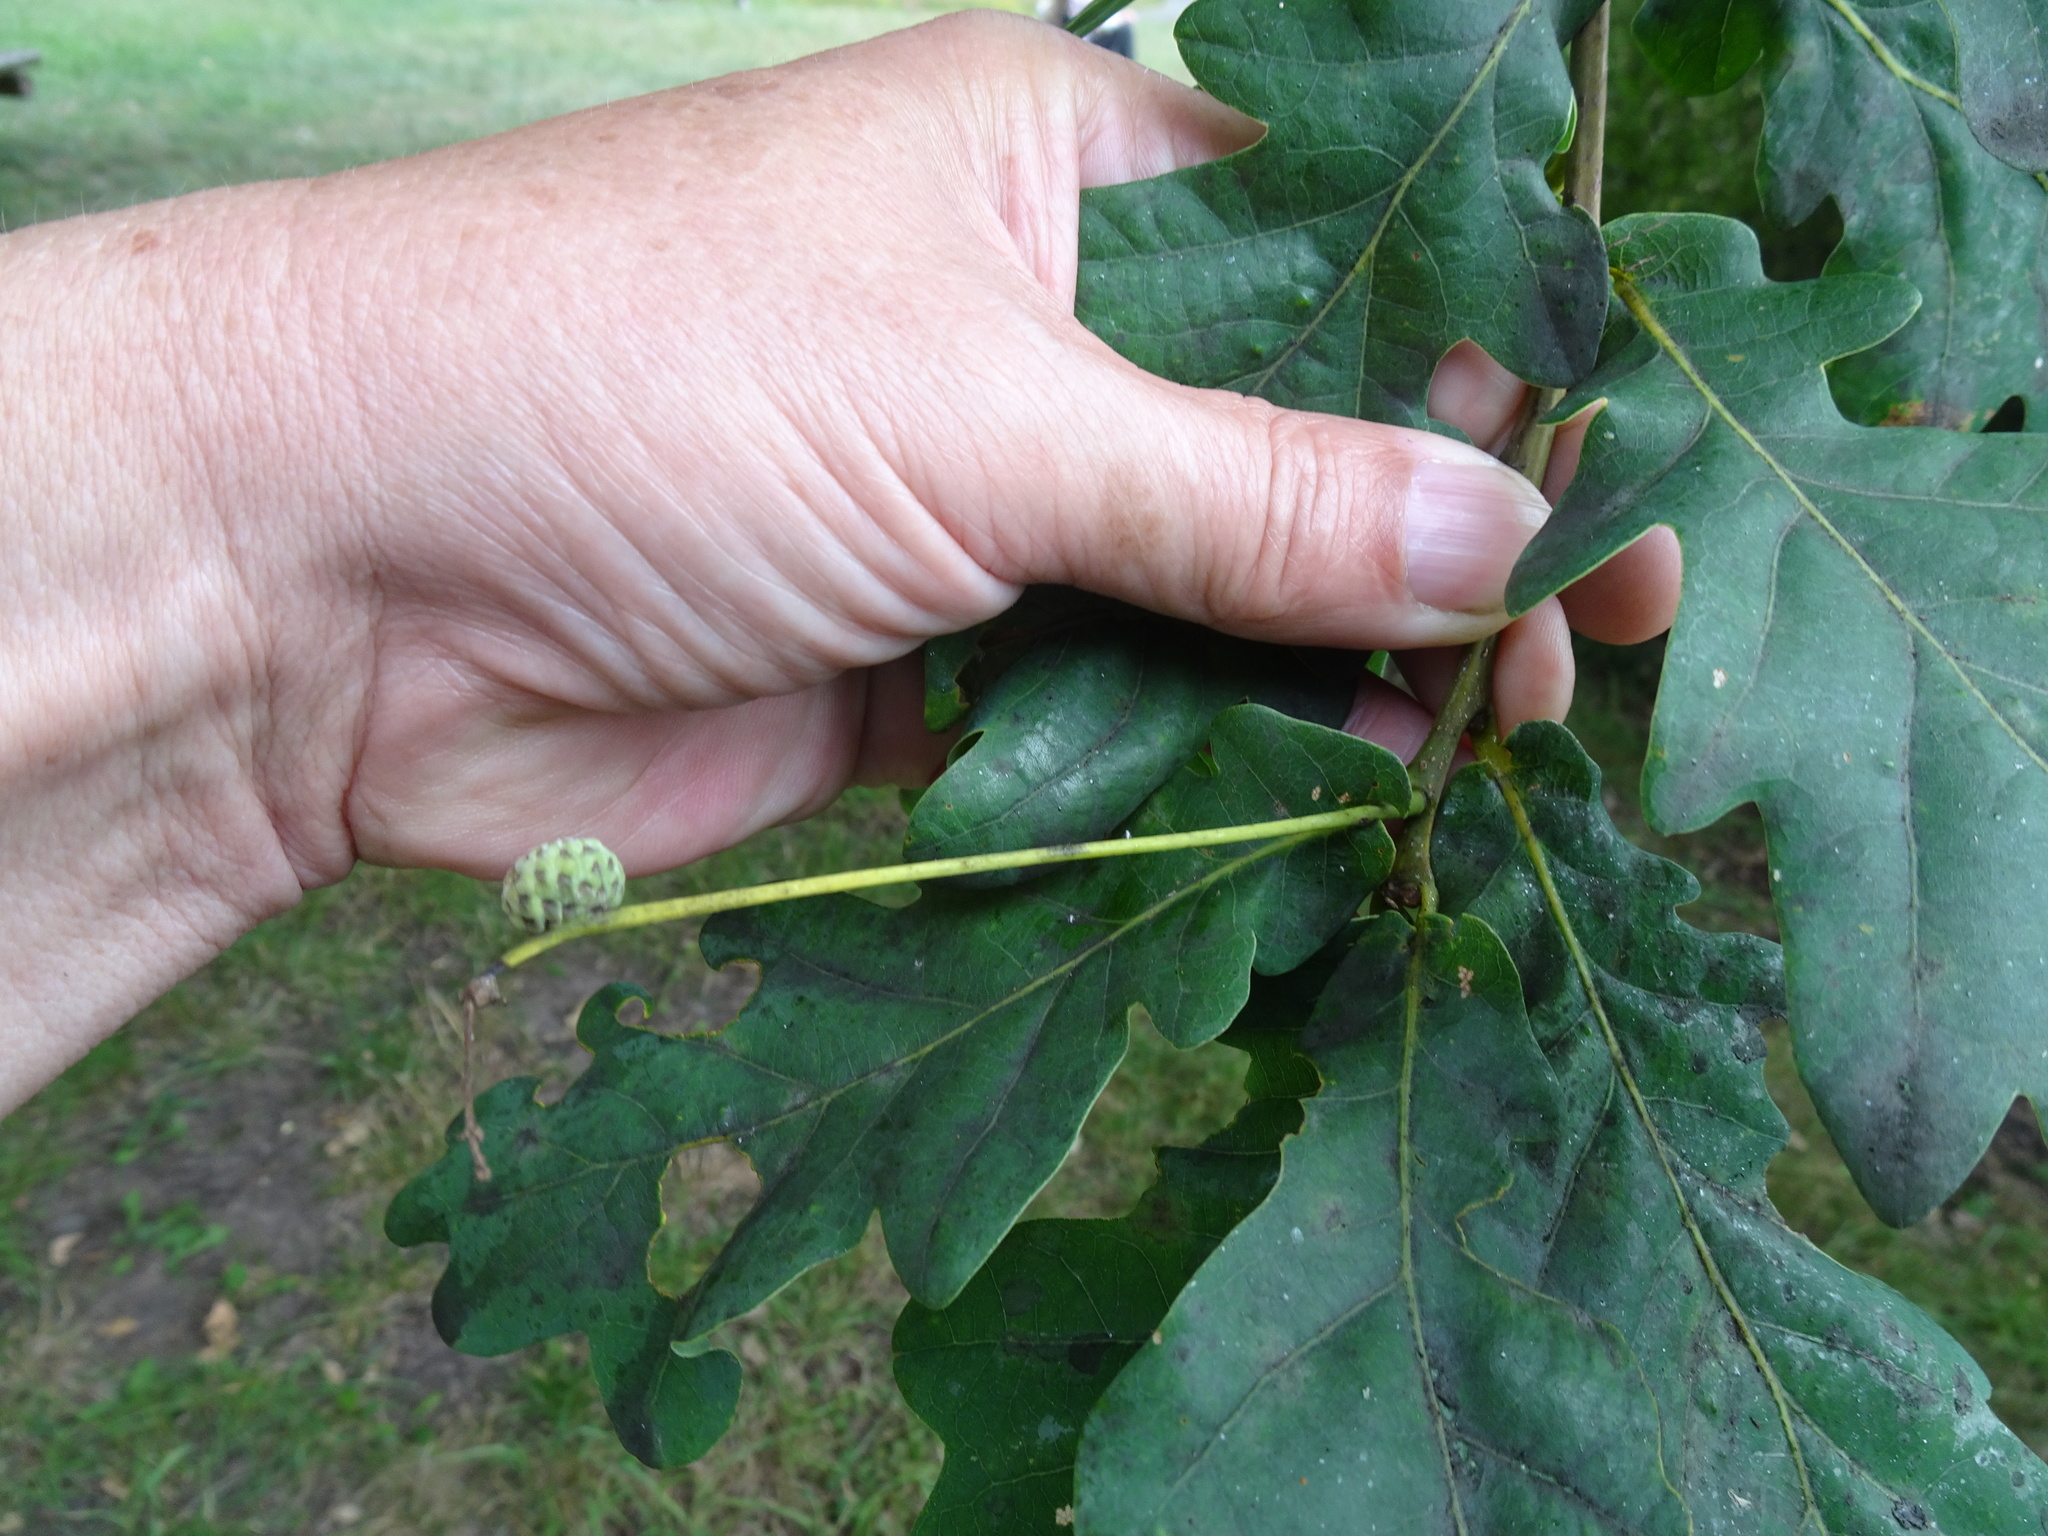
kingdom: Plantae
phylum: Tracheophyta
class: Magnoliopsida
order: Fagales
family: Fagaceae
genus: Quercus
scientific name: Quercus robur
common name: Pedunculate oak
